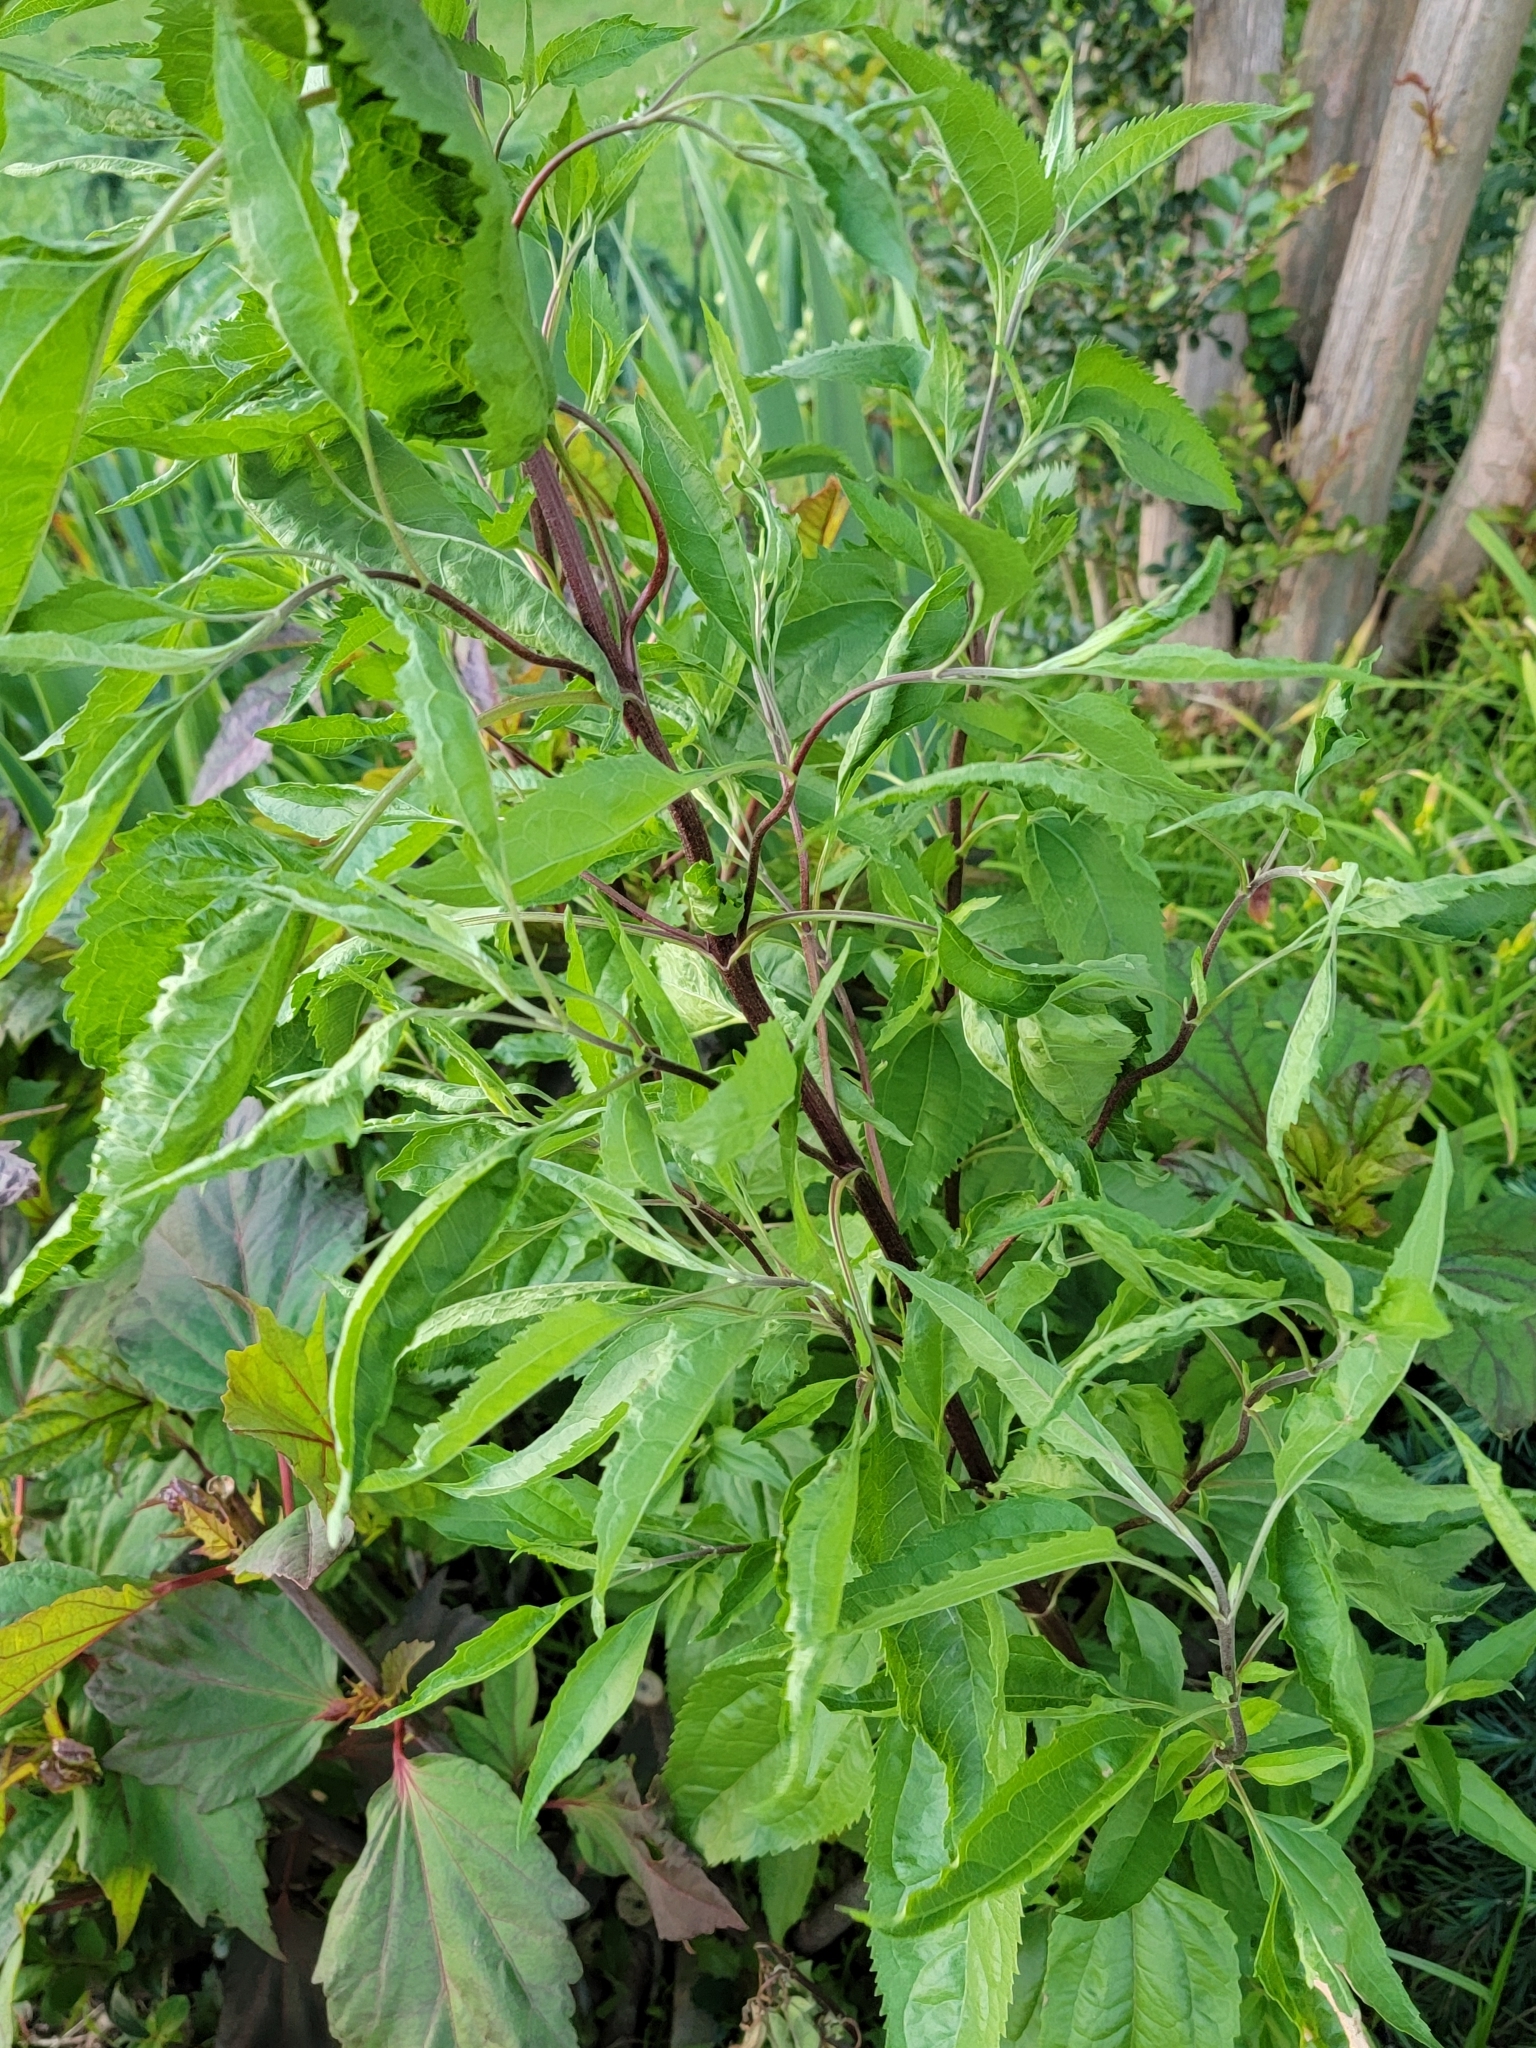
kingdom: Plantae
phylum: Tracheophyta
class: Magnoliopsida
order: Asterales
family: Asteraceae
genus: Eupatorium
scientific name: Eupatorium serotinum
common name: Late boneset
